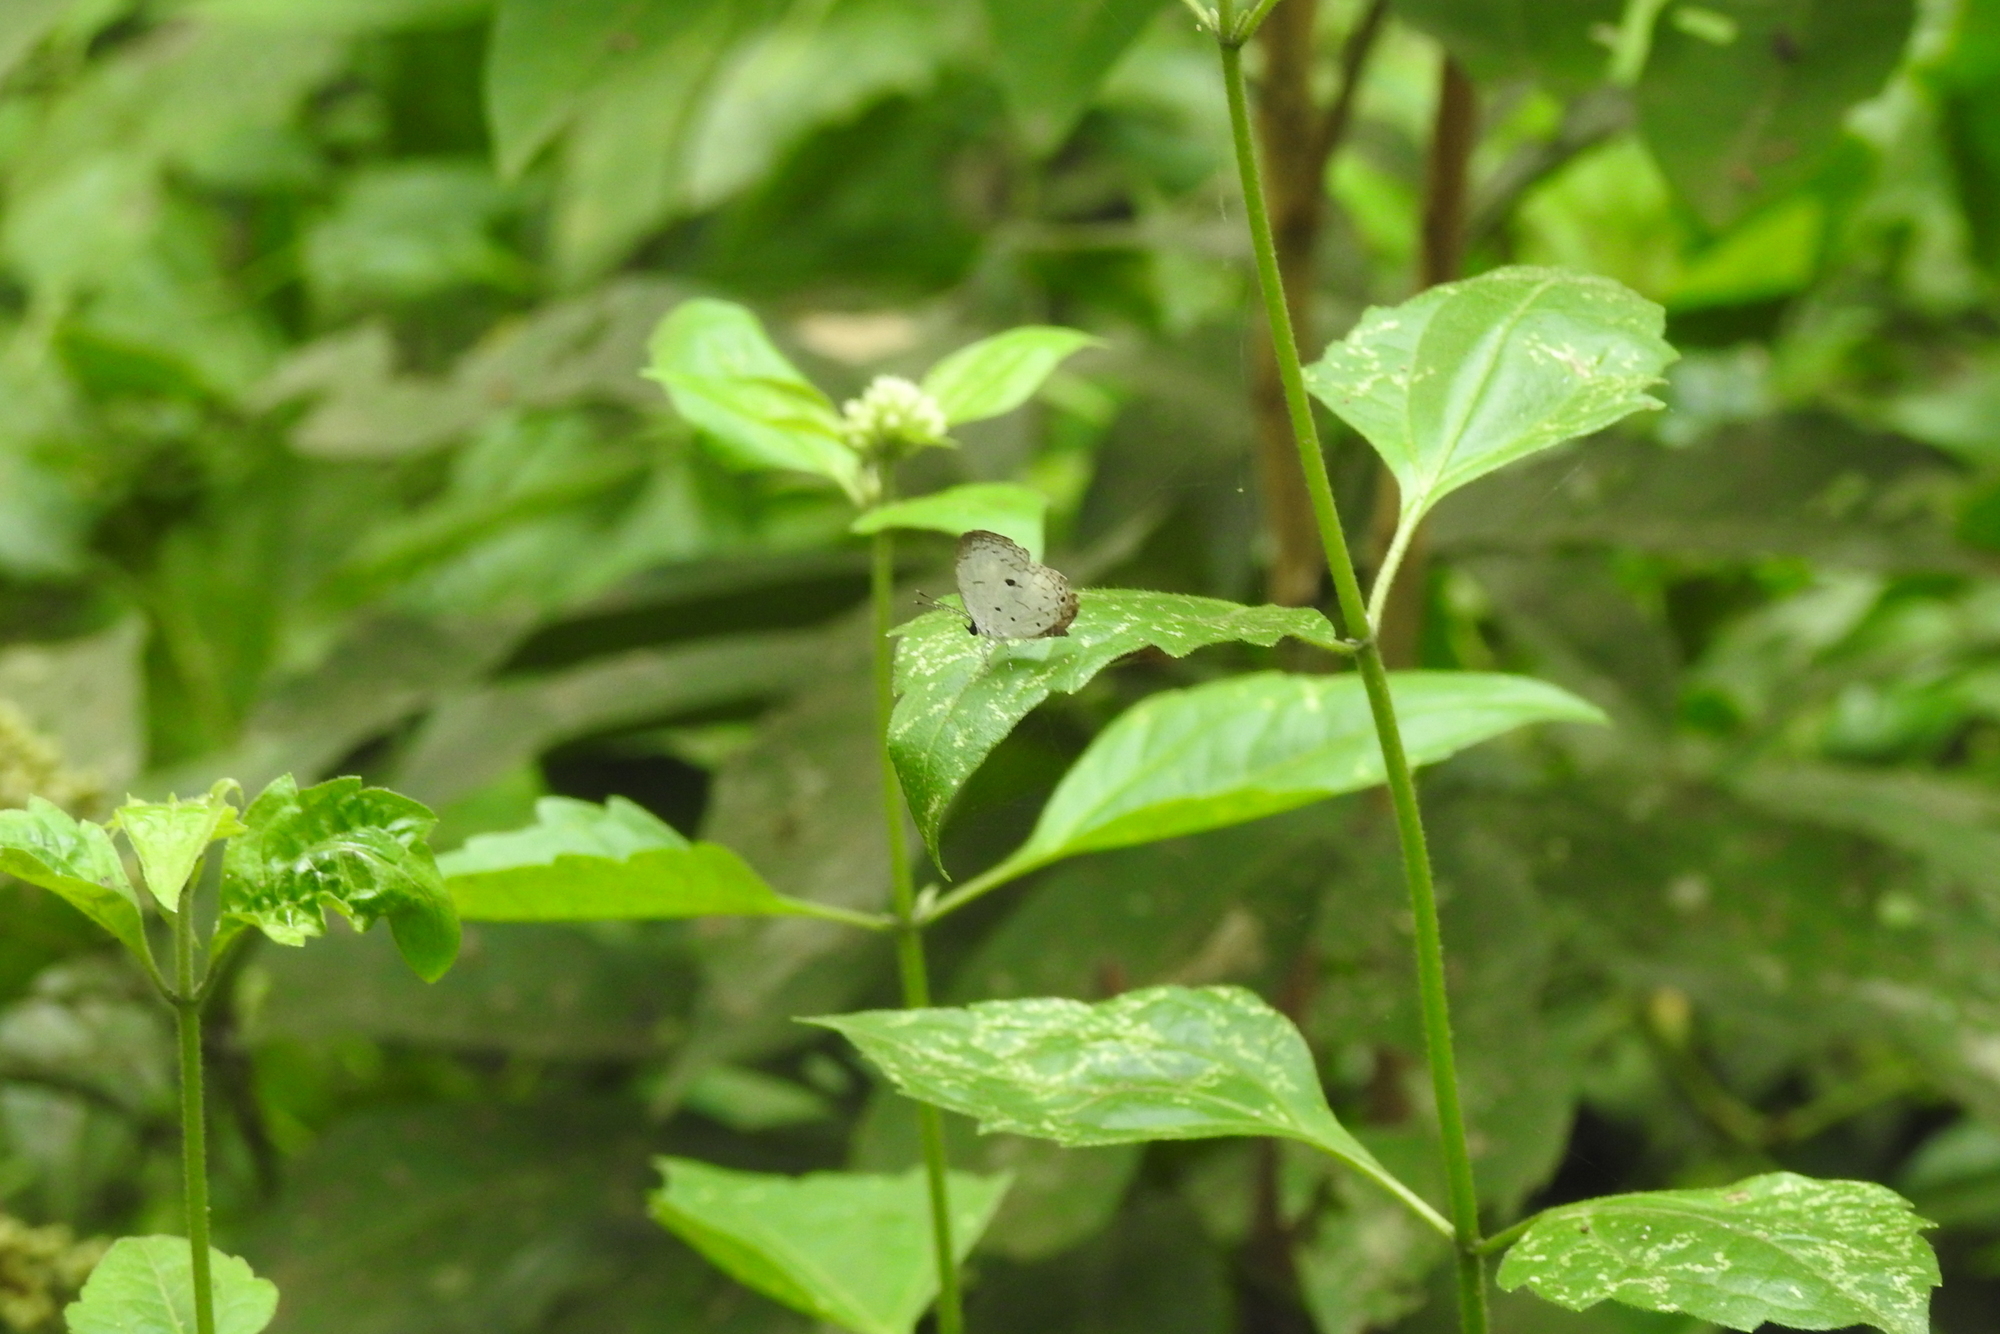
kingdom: Animalia
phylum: Arthropoda
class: Insecta
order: Lepidoptera
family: Lycaenidae
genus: Neopithecops
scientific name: Neopithecops zalmora
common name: Quaker
